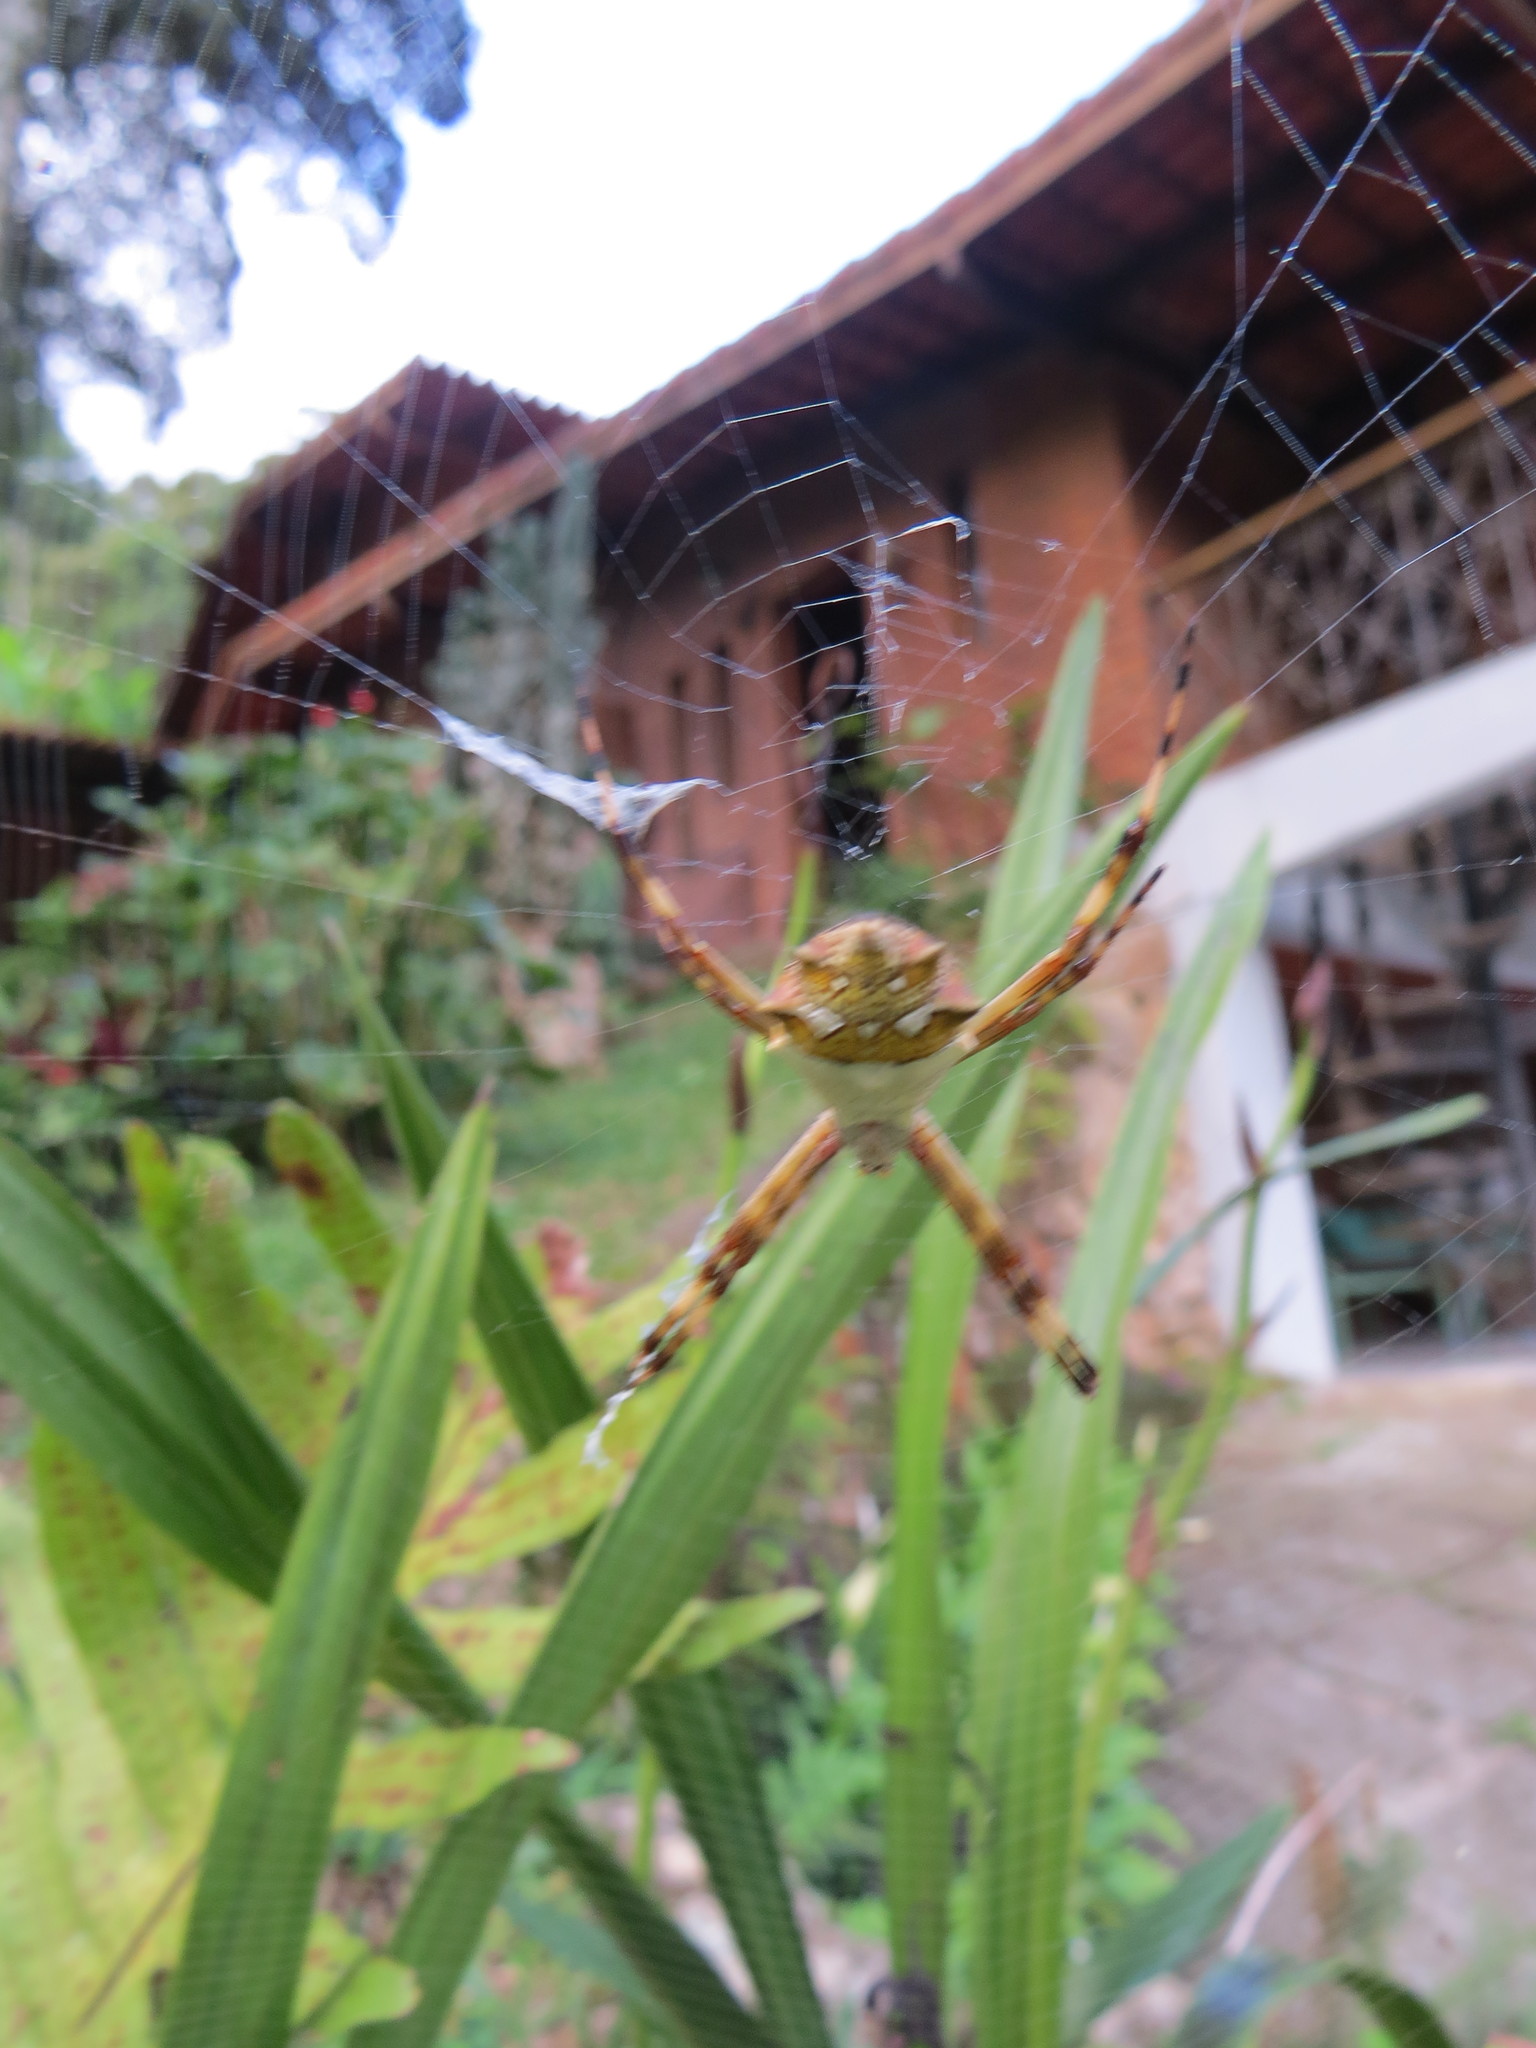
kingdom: Animalia
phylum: Arthropoda
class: Arachnida
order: Araneae
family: Araneidae
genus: Argiope
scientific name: Argiope argentata
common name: Orb weavers
